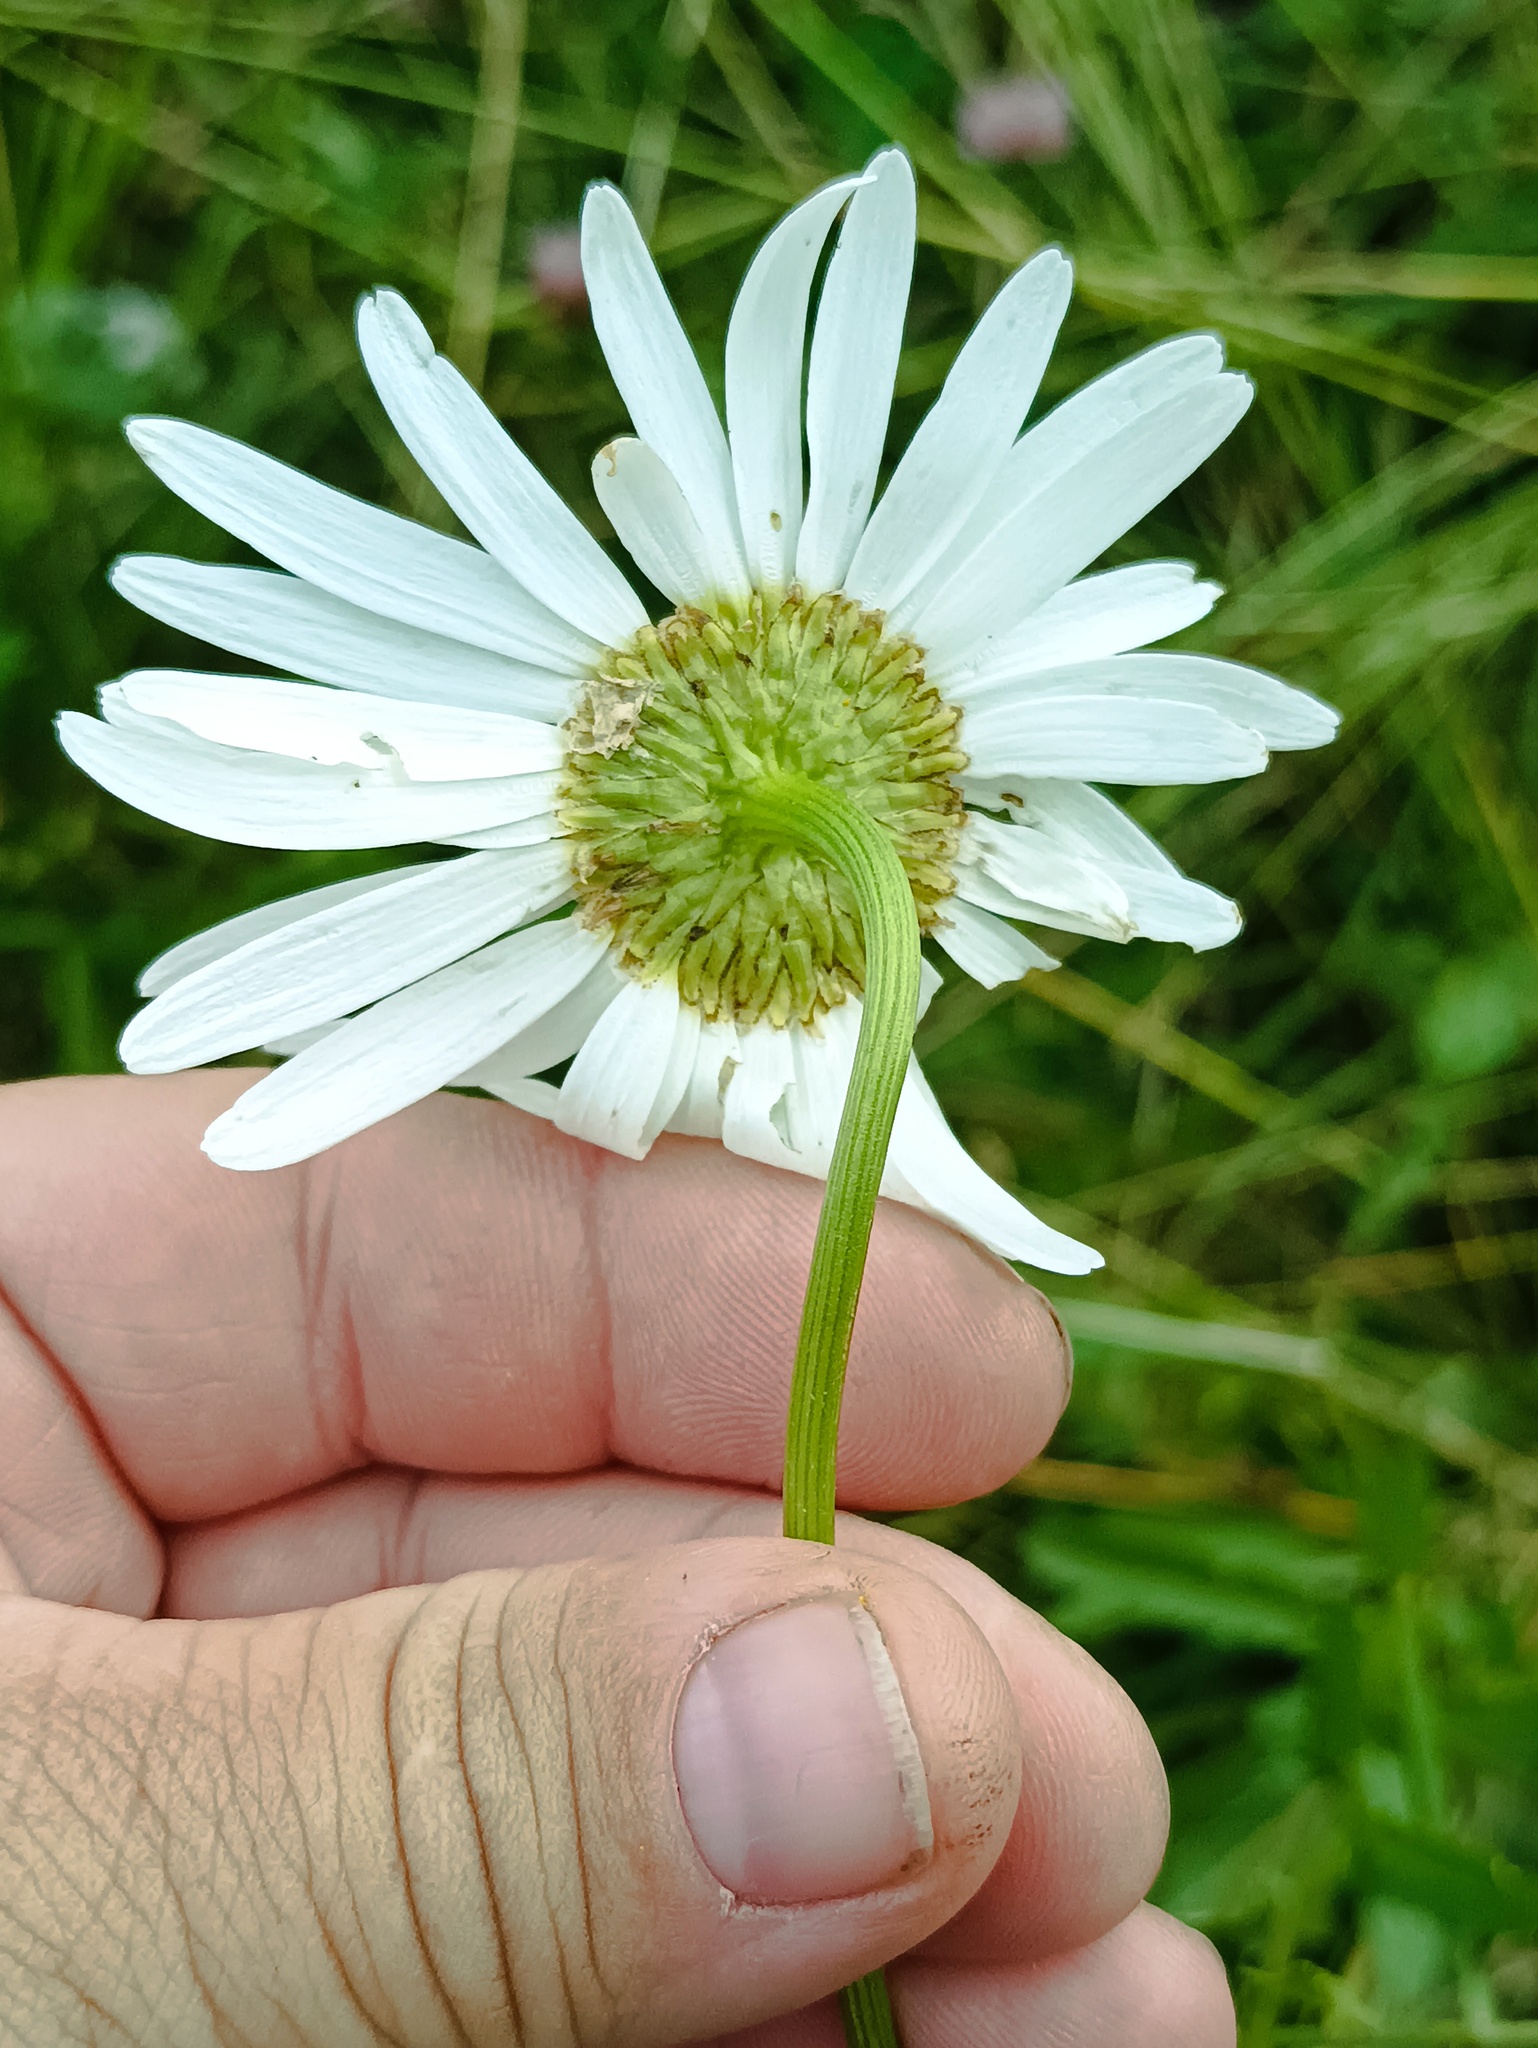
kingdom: Plantae
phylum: Tracheophyta
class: Magnoliopsida
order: Asterales
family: Asteraceae
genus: Leucanthemum
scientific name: Leucanthemum vulgare
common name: Oxeye daisy
